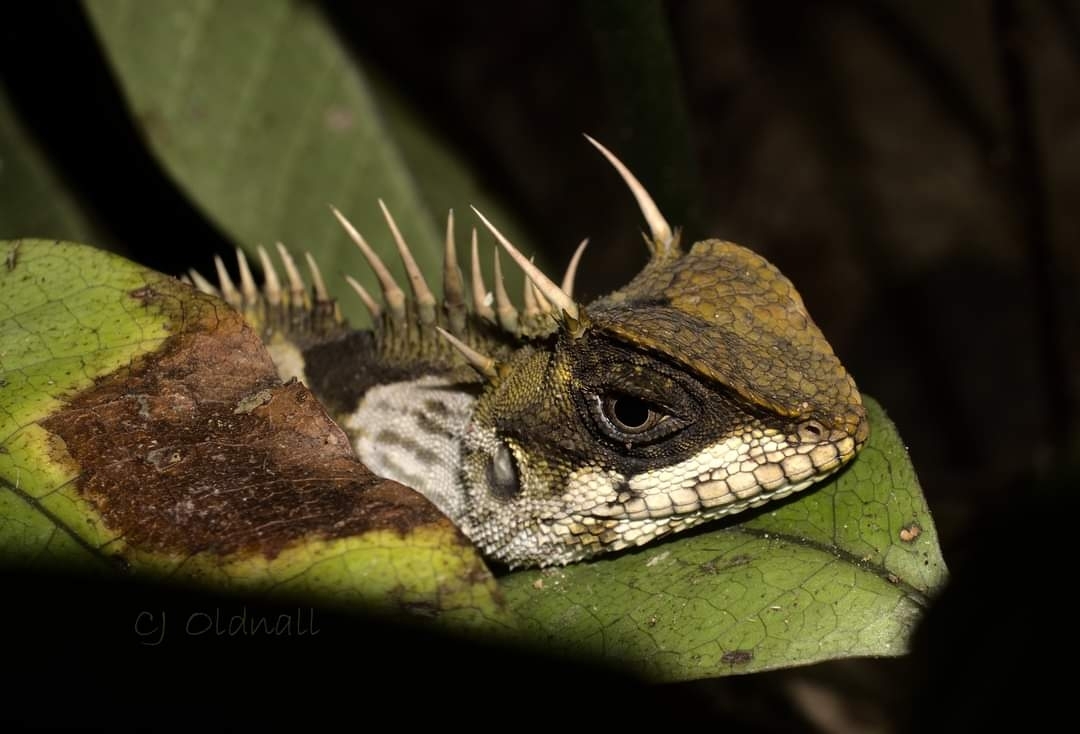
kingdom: Animalia
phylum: Chordata
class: Squamata
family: Agamidae
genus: Acanthosaura
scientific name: Acanthosaura phuketensis
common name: Phuket horned tree agamid
